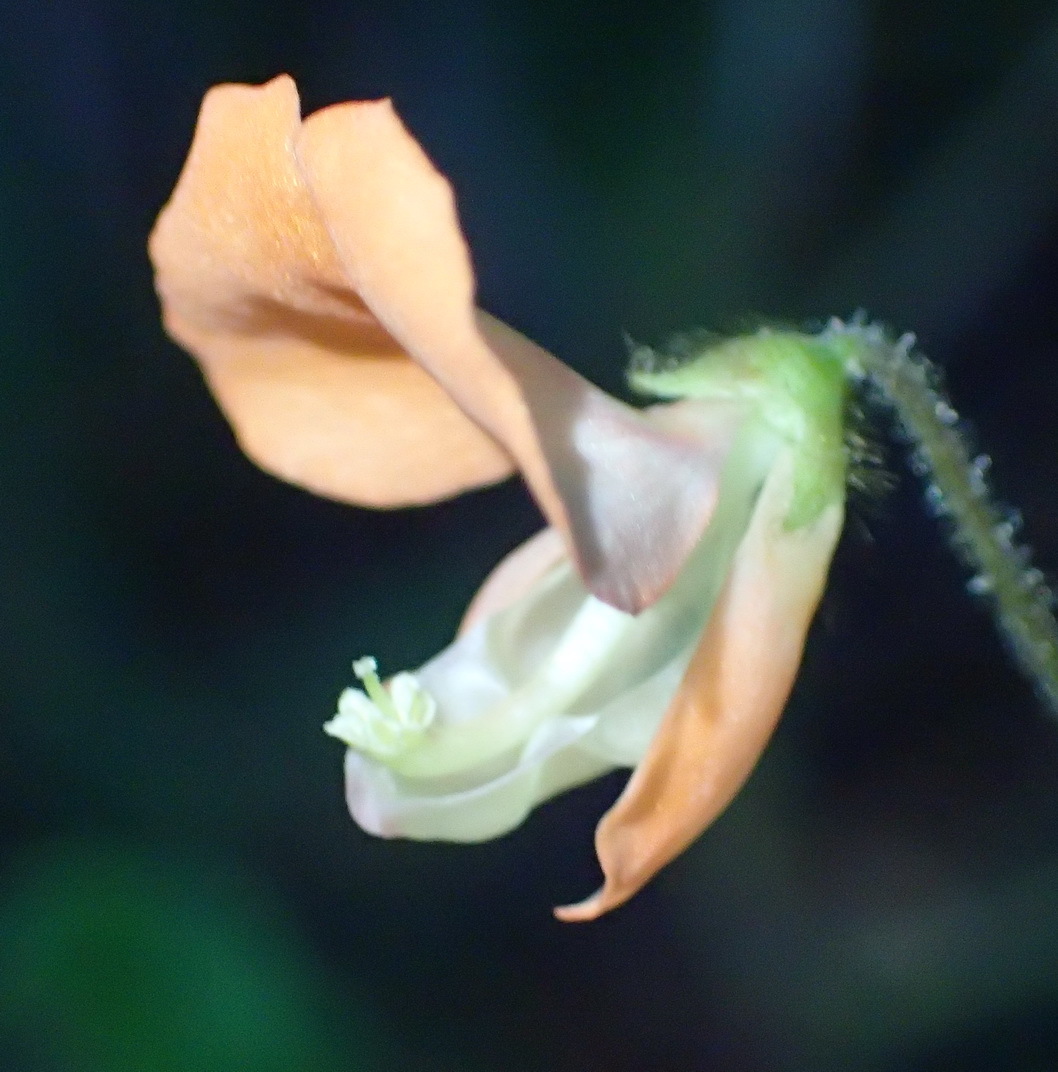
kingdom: Plantae
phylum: Tracheophyta
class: Magnoliopsida
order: Fabales
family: Fabaceae
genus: Hylodesmum
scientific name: Hylodesmum repandum
